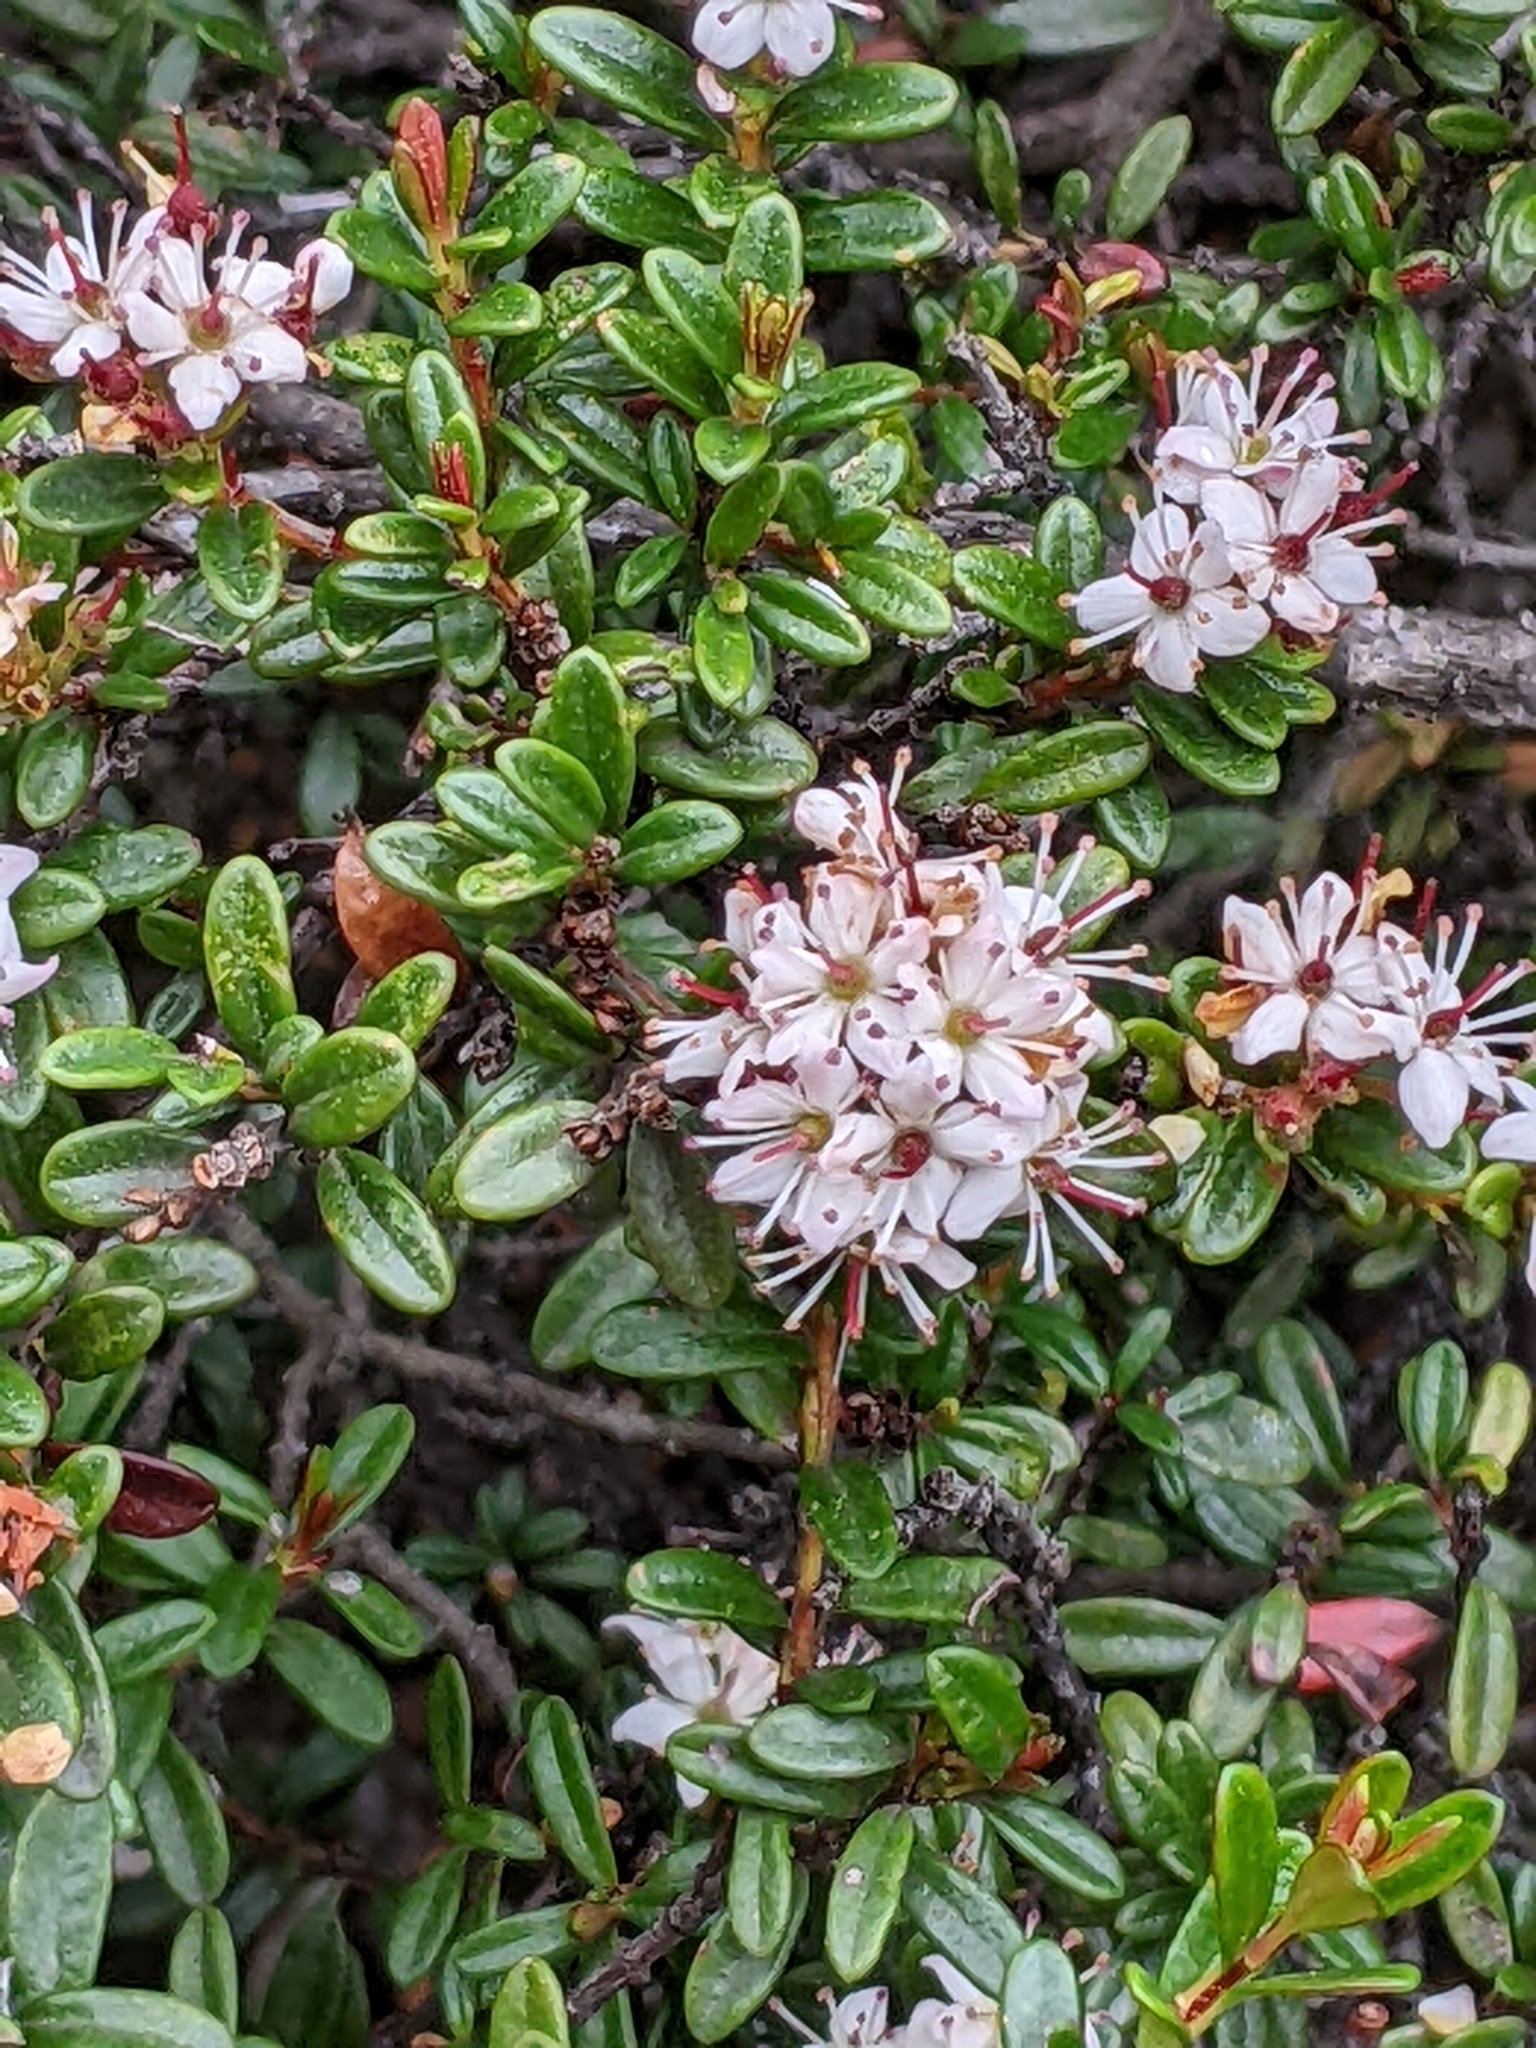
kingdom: Plantae
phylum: Tracheophyta
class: Magnoliopsida
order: Ericales
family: Ericaceae
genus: Kalmia
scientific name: Kalmia buxifolia
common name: Sandmyrtle
